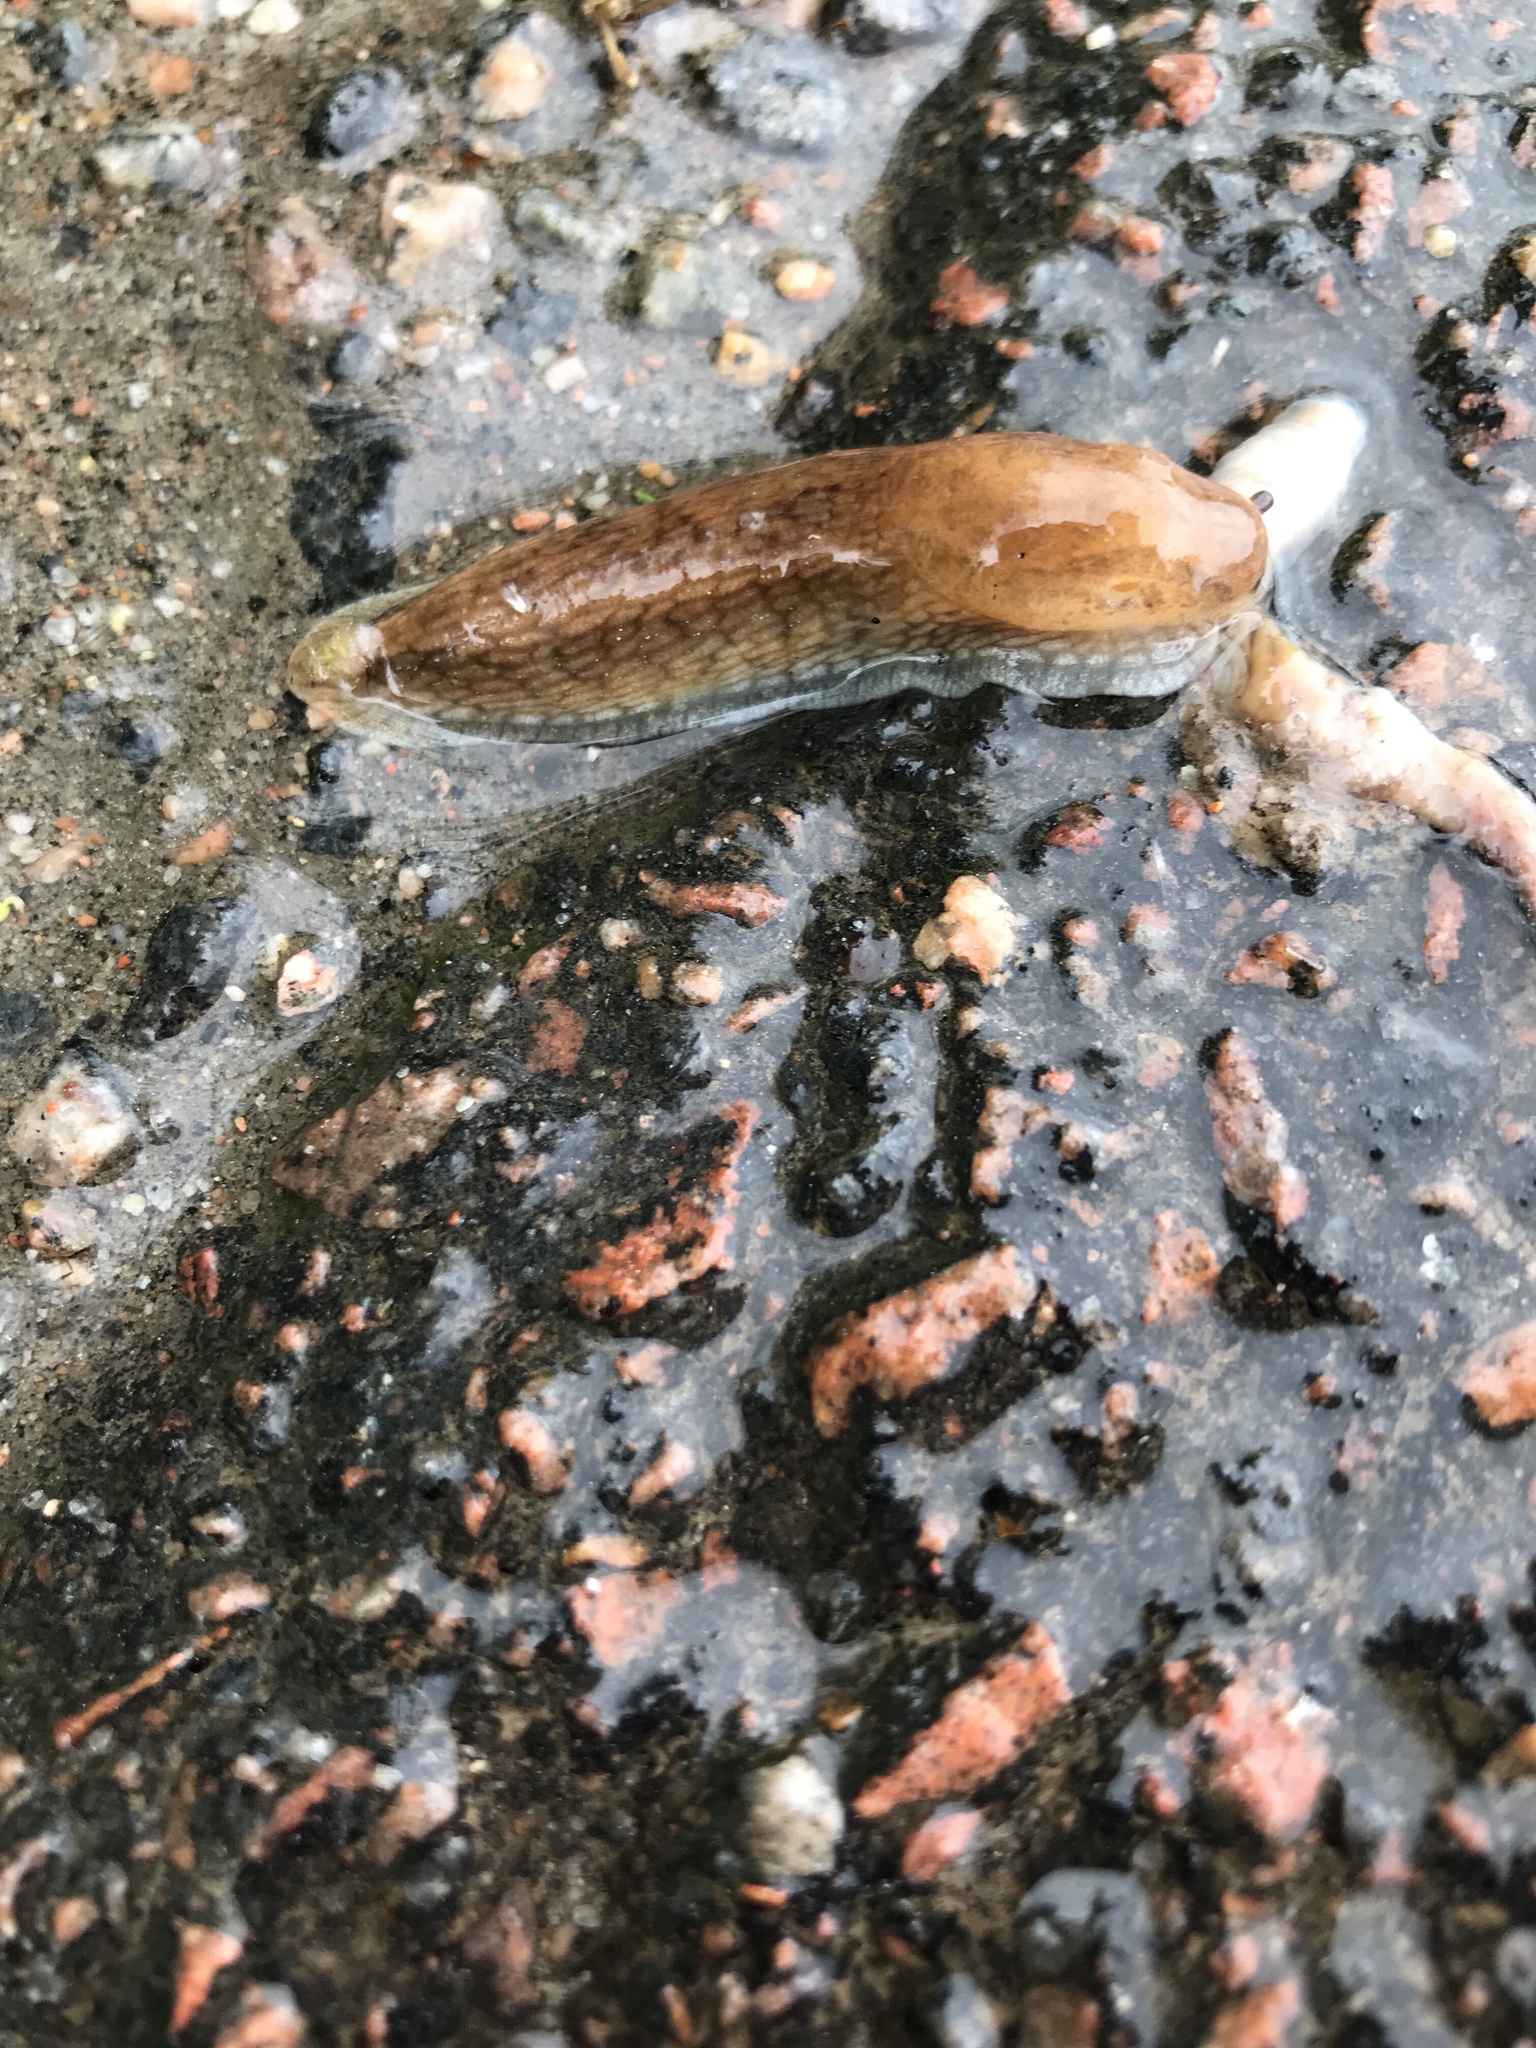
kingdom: Animalia
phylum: Mollusca
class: Gastropoda
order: Stylommatophora
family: Arionidae
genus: Arion
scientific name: Arion fuscus
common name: Northern dusky slug
